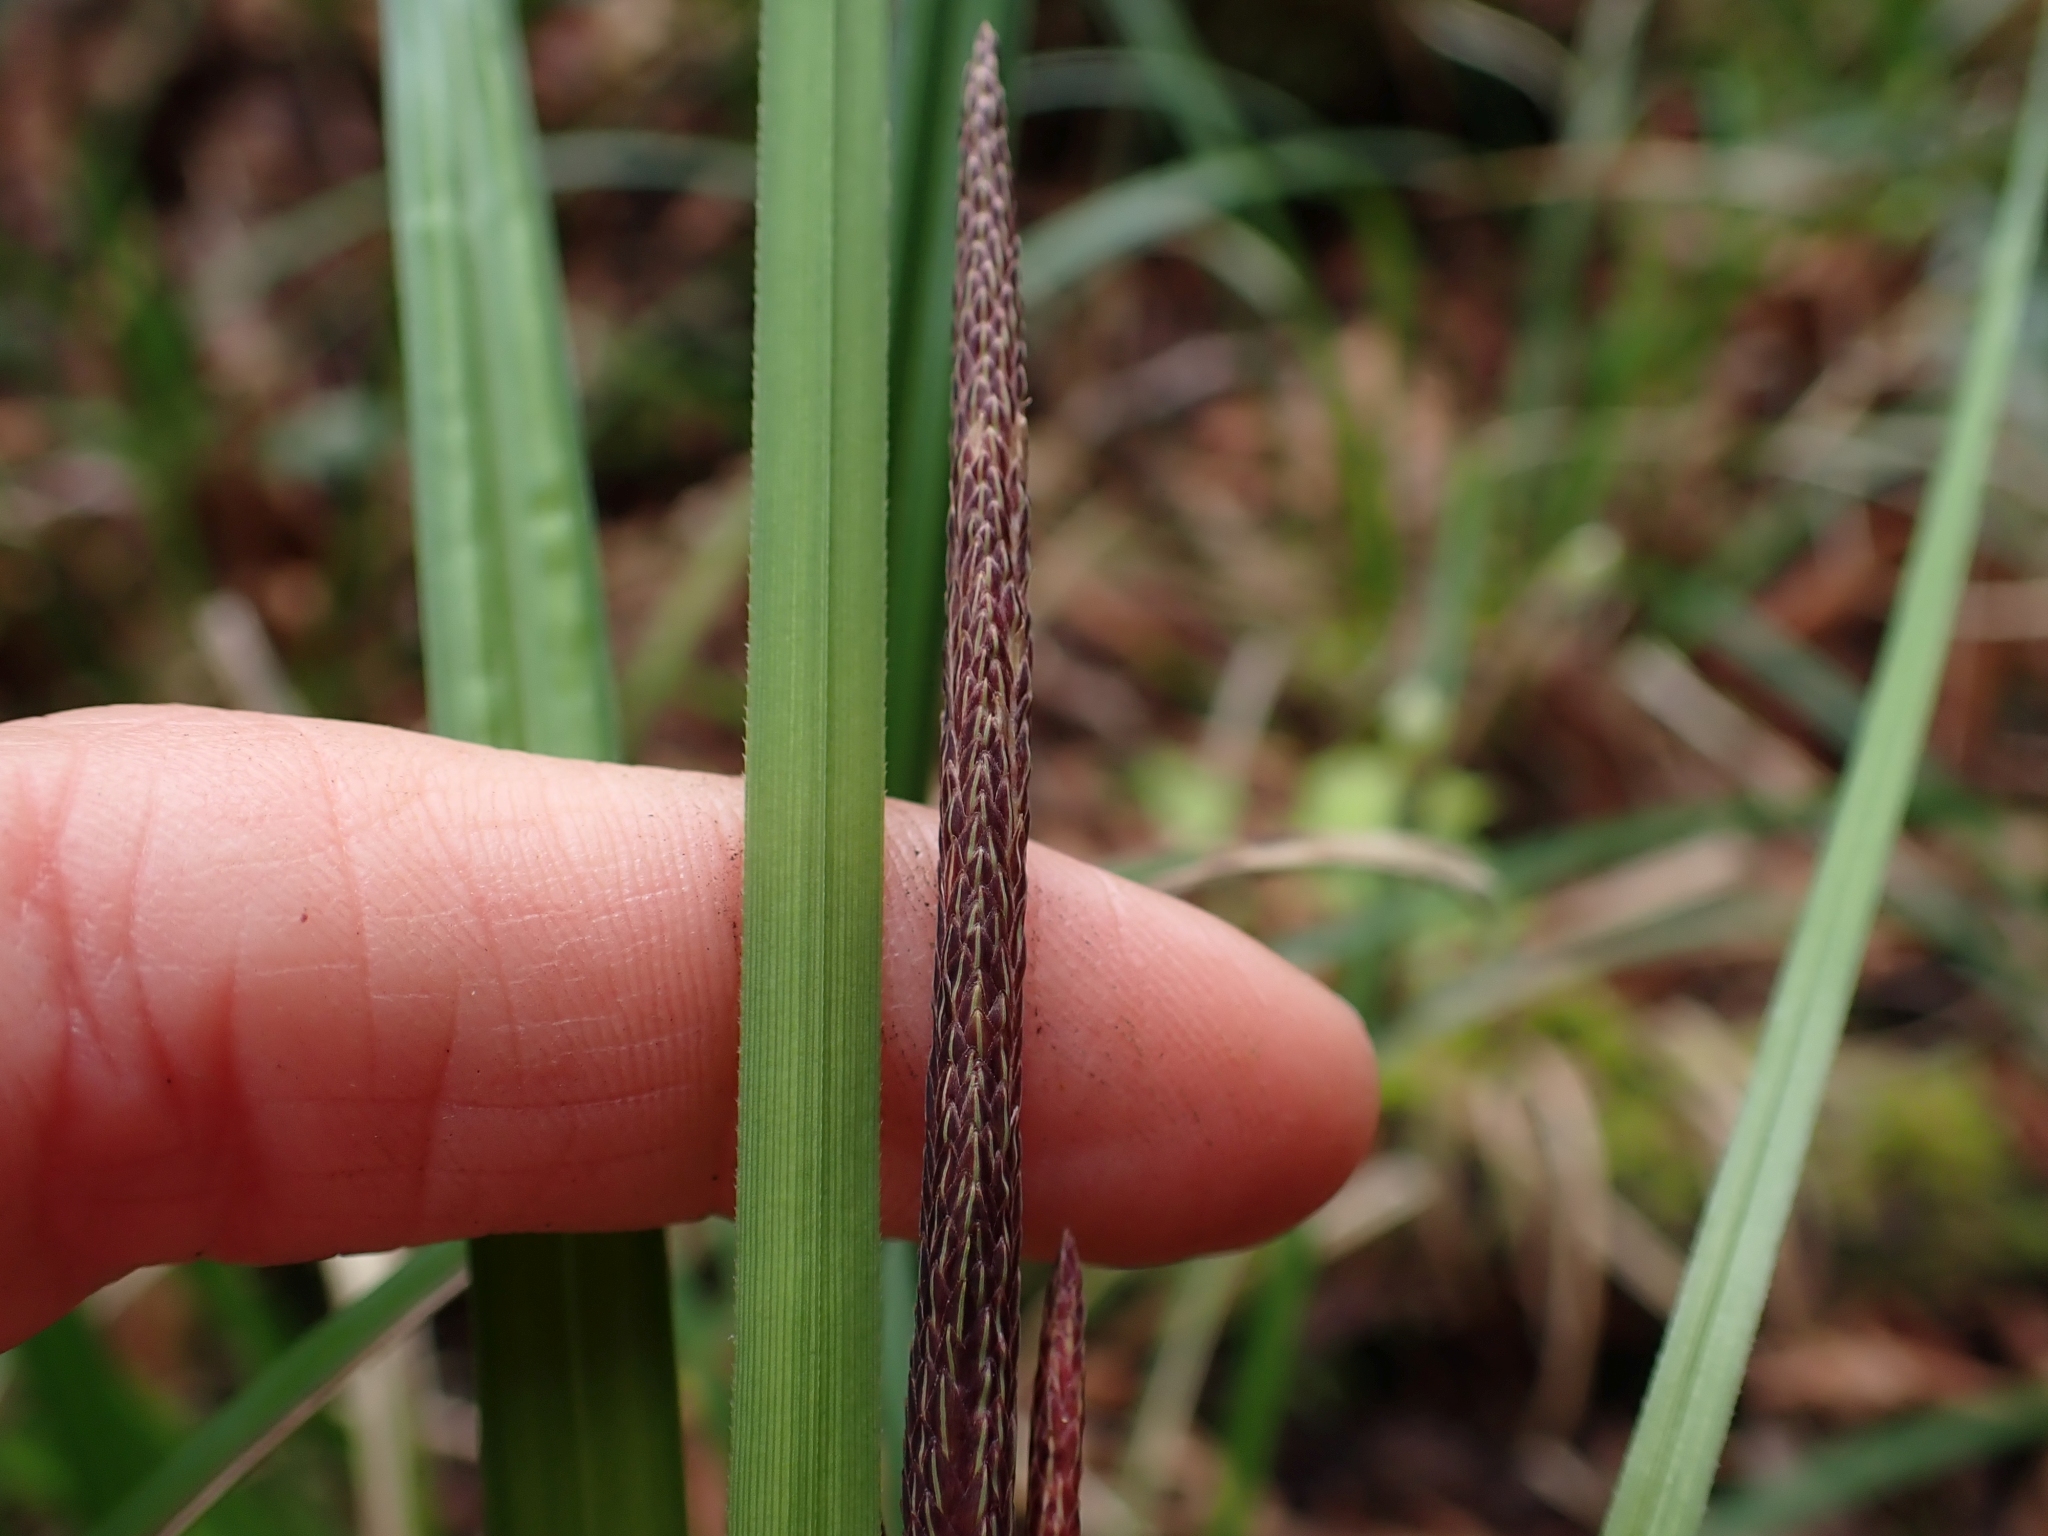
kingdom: Plantae
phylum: Tracheophyta
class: Liliopsida
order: Poales
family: Cyperaceae
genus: Carex
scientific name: Carex obnupta
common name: Slough sedge
